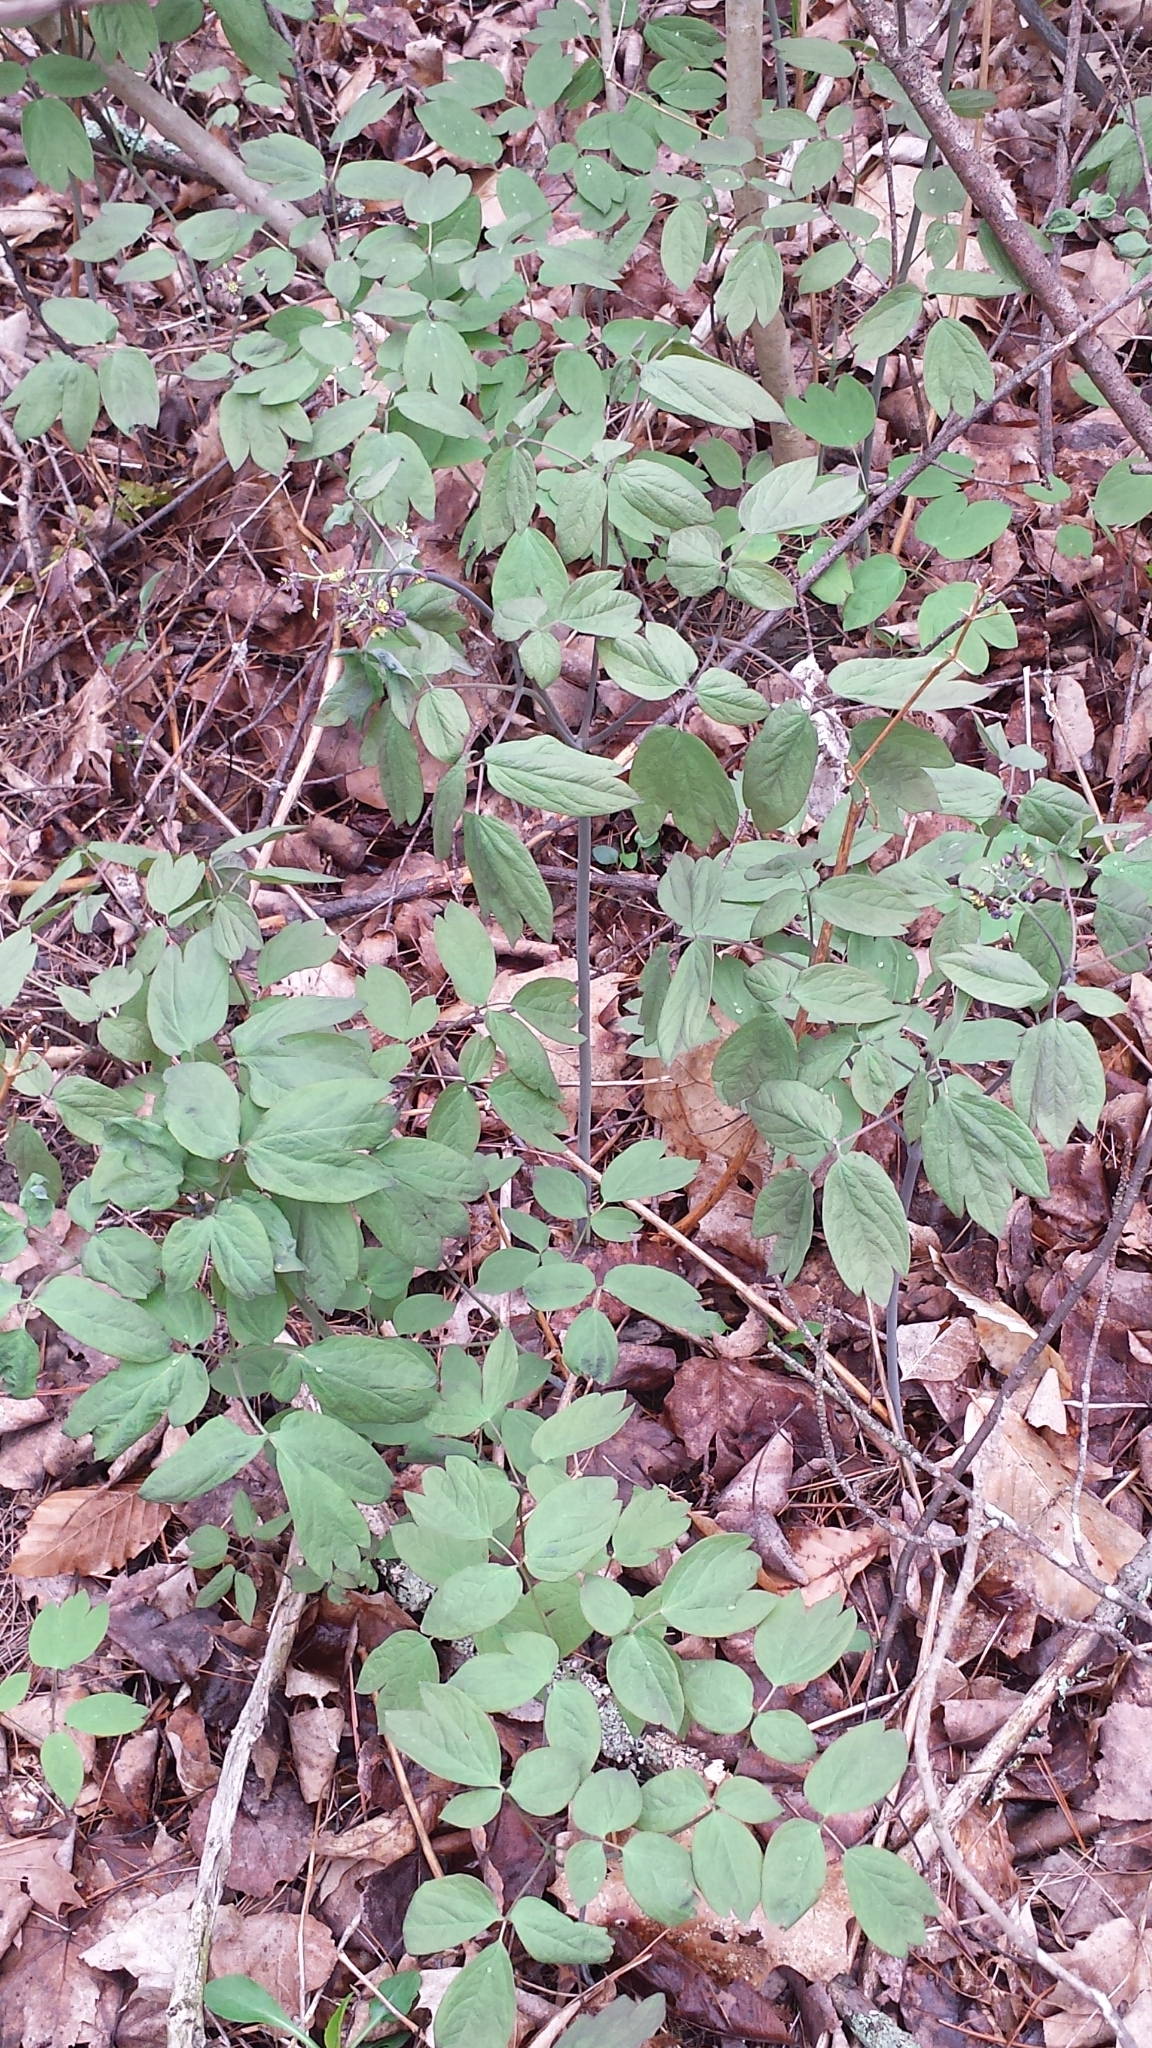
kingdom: Plantae
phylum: Tracheophyta
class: Magnoliopsida
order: Ranunculales
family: Berberidaceae
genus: Caulophyllum
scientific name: Caulophyllum giganteum
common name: Blue cohosh
